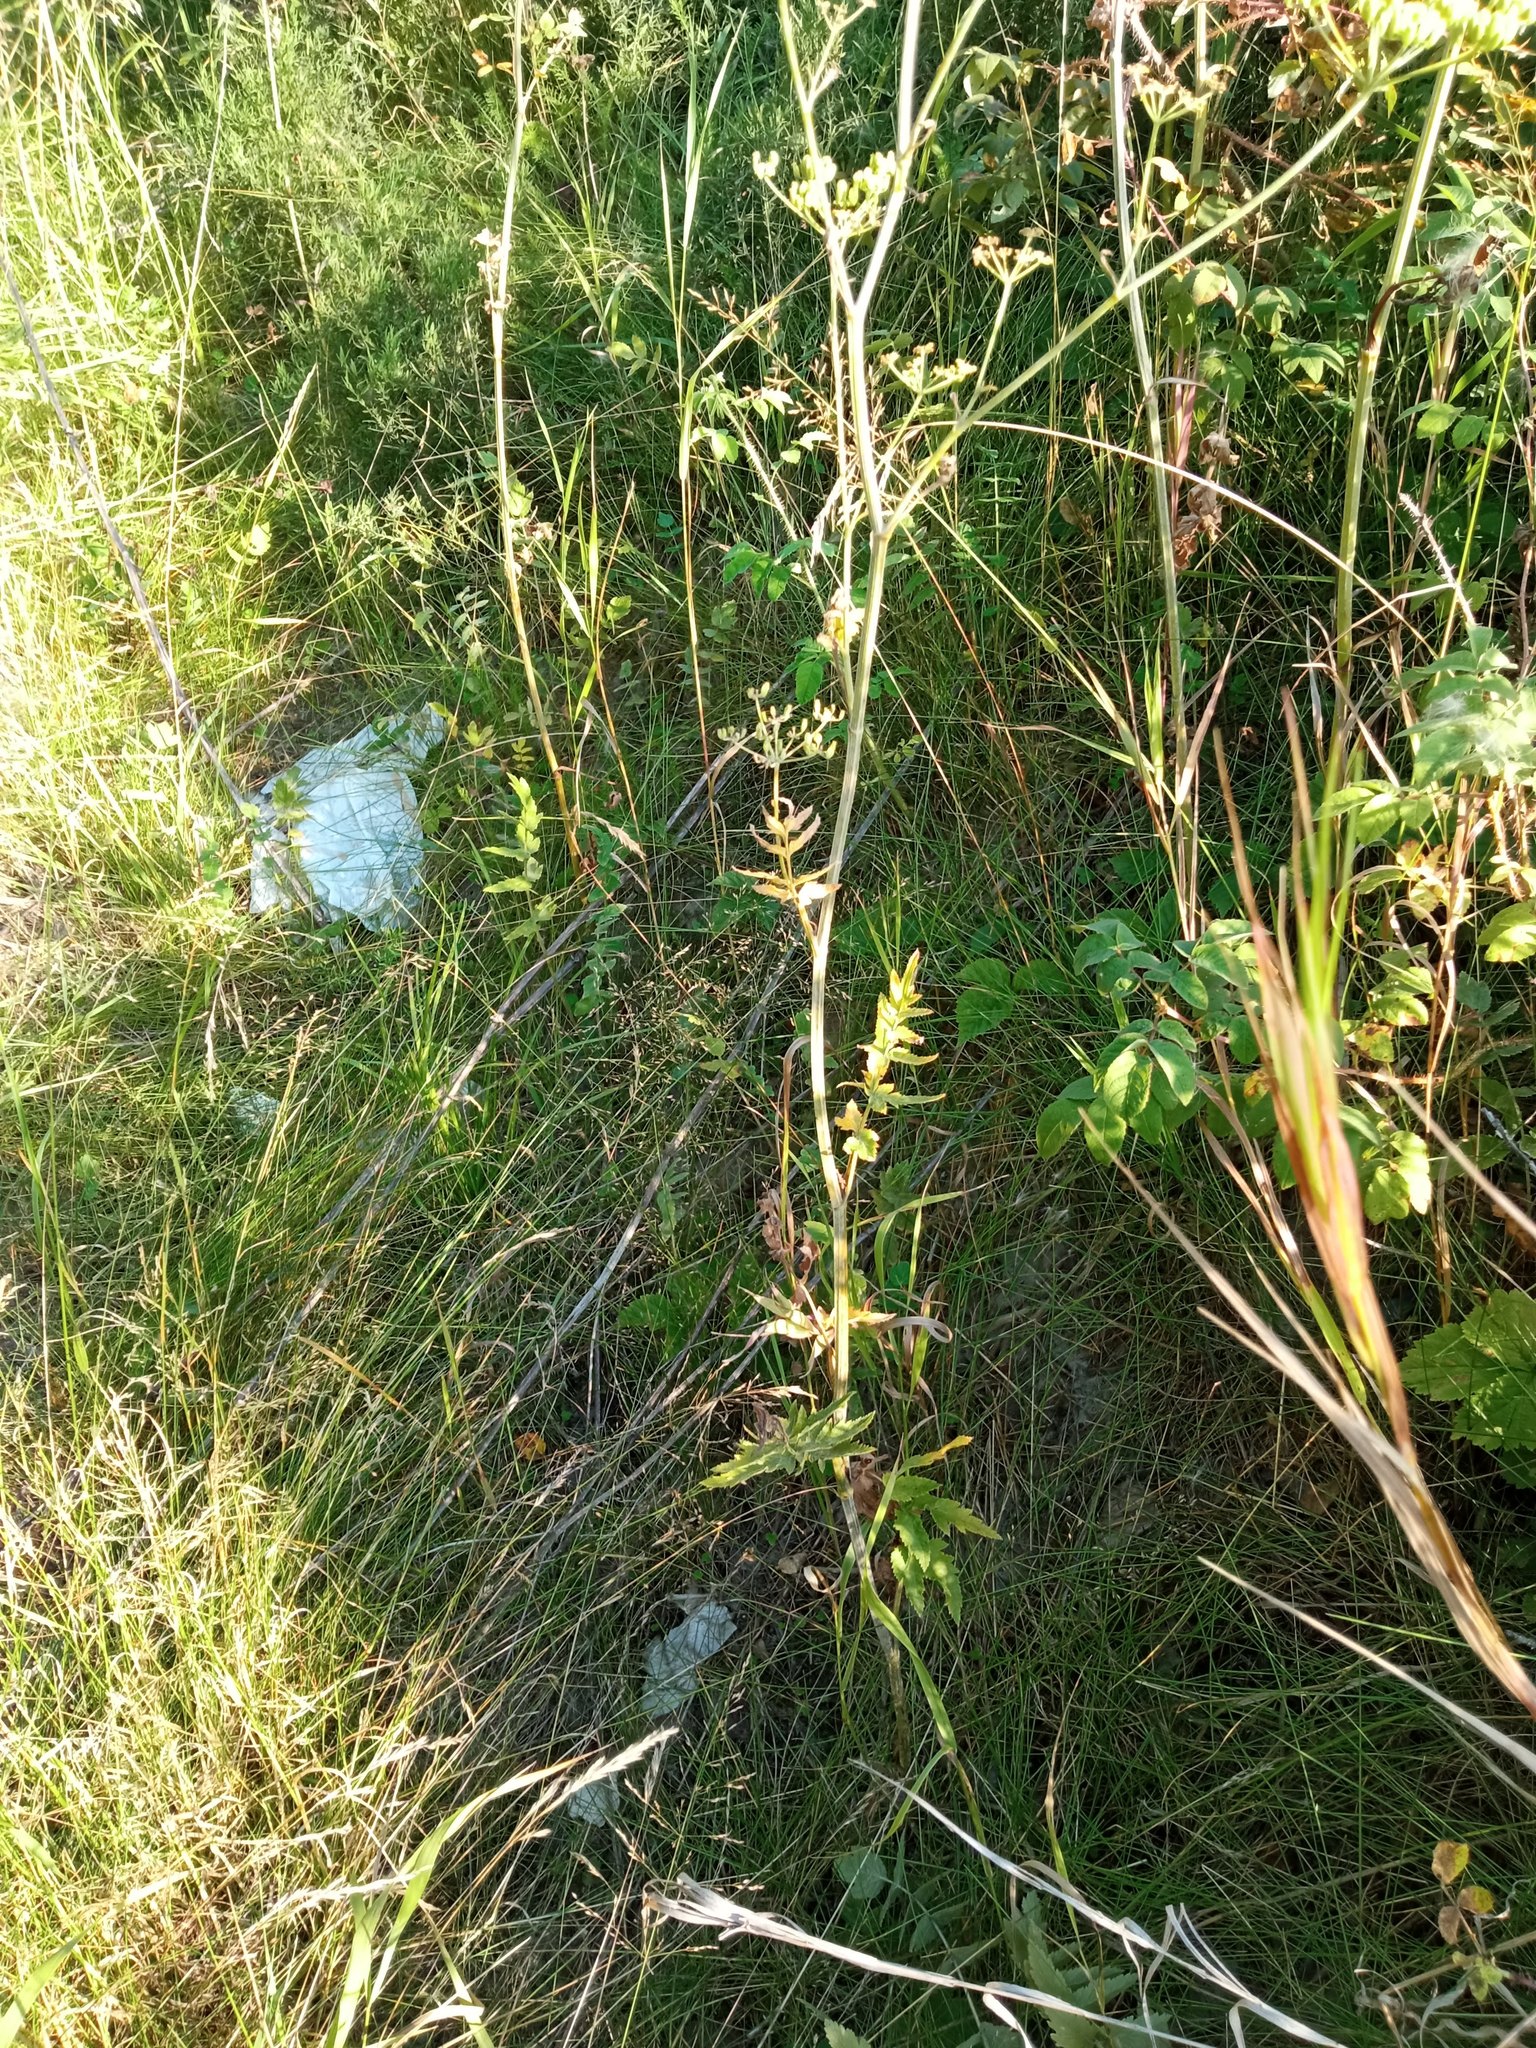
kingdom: Plantae
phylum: Tracheophyta
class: Magnoliopsida
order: Apiales
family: Apiaceae
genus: Pastinaca
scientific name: Pastinaca sativa
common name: Wild parsnip
